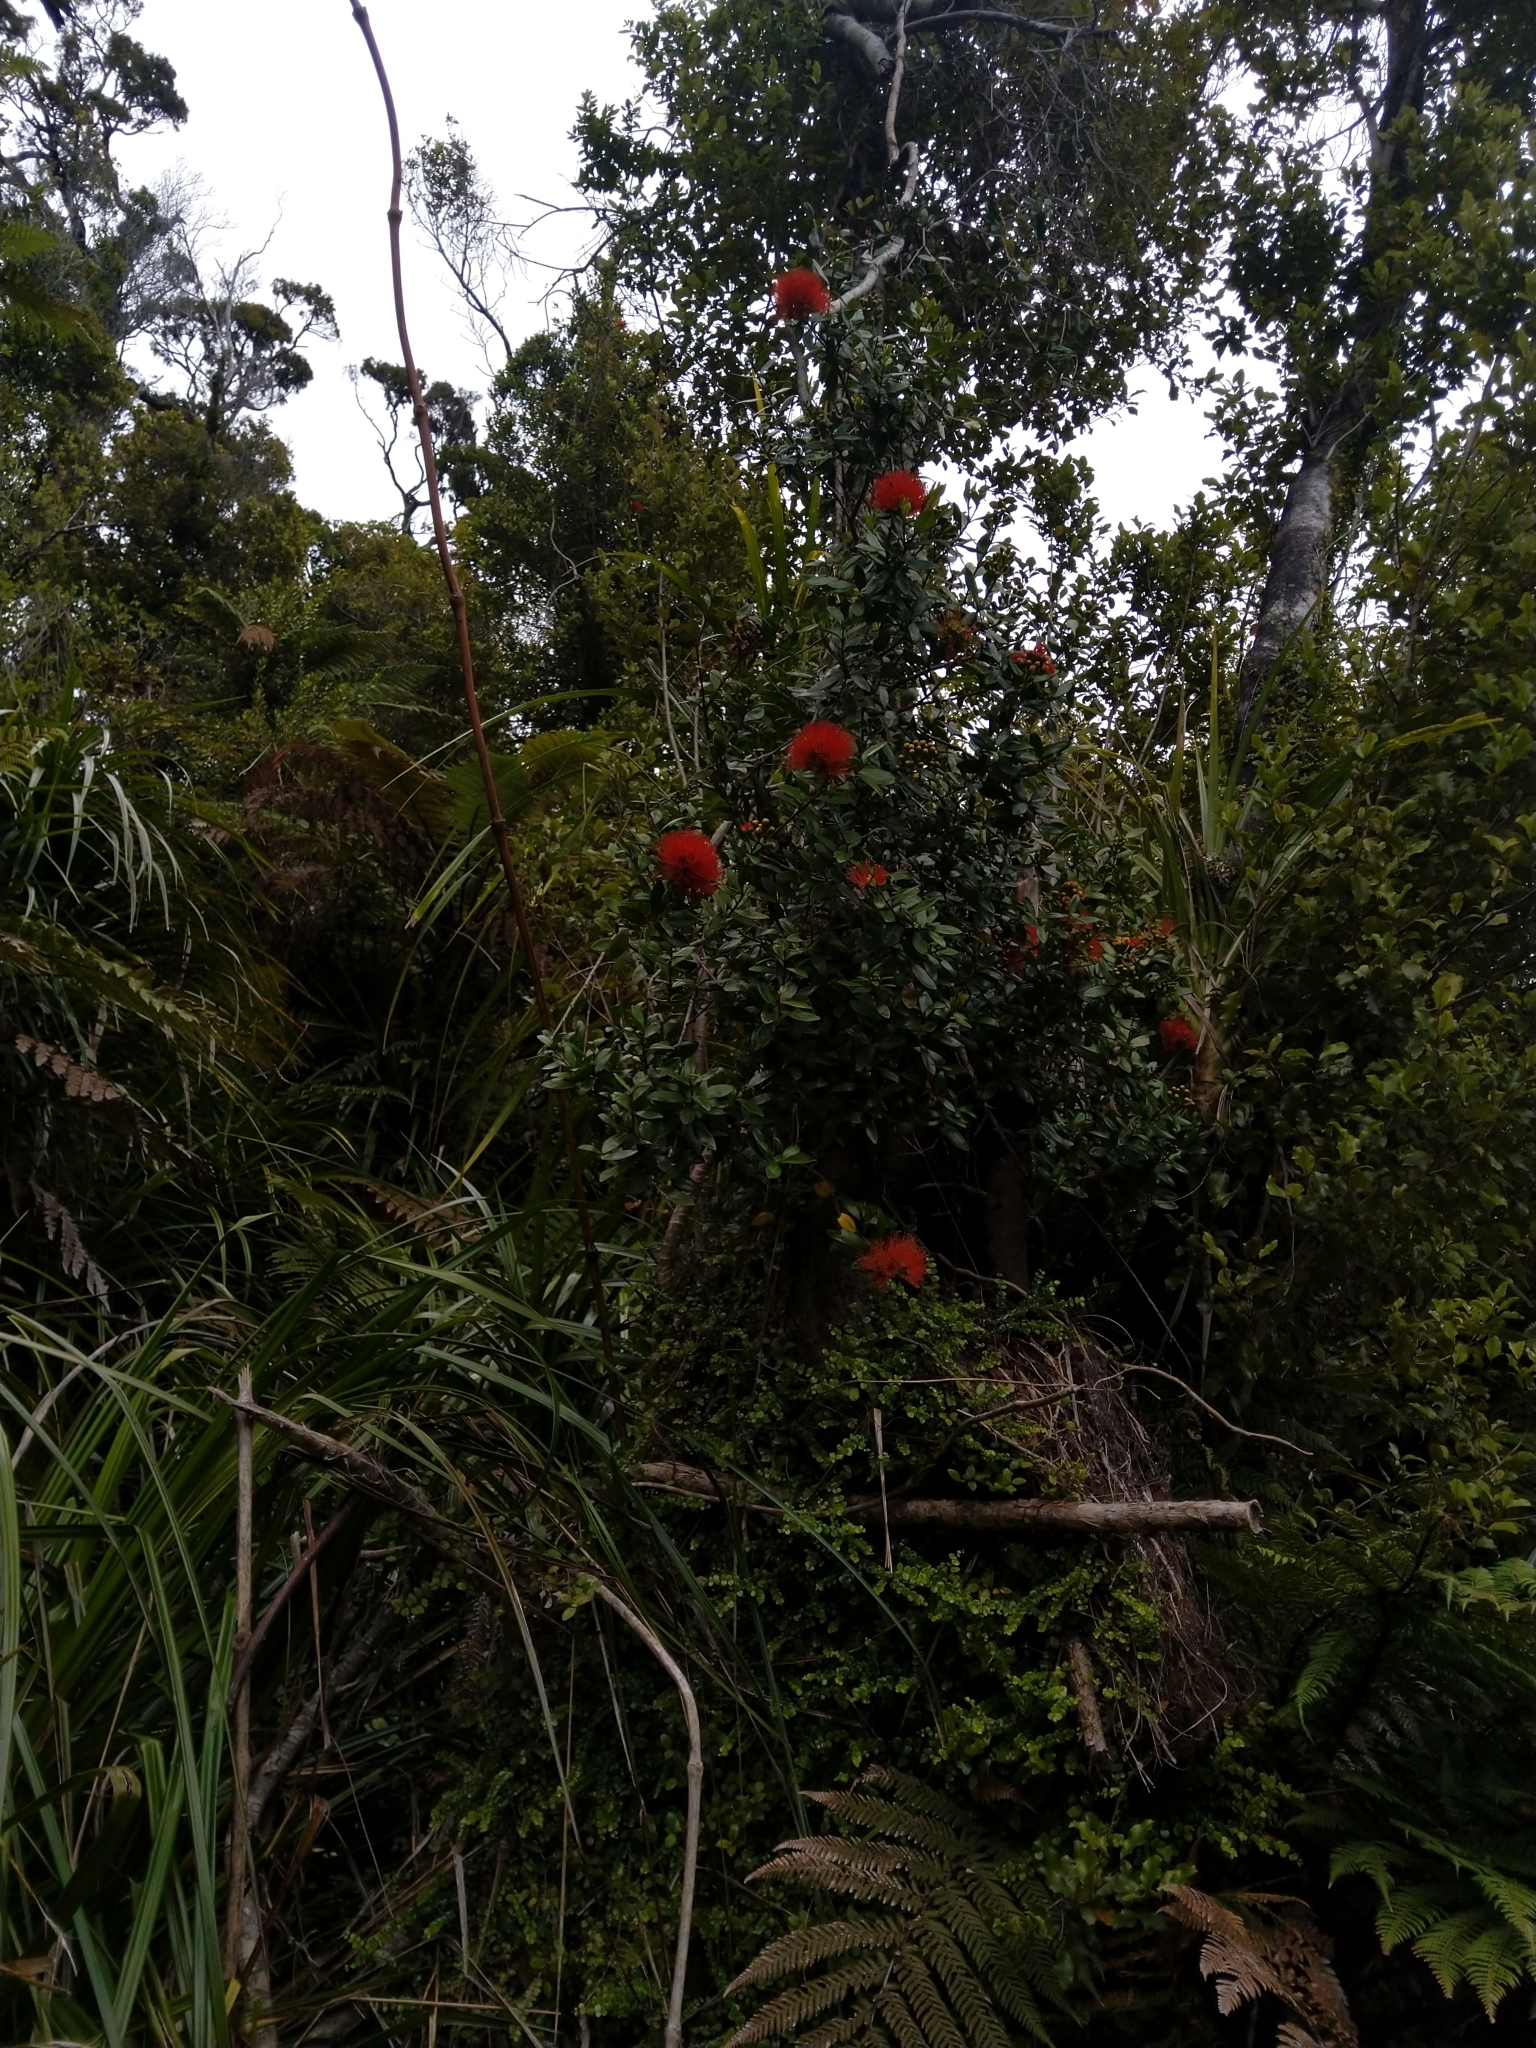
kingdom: Plantae
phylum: Tracheophyta
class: Magnoliopsida
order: Myrtales
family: Myrtaceae
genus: Metrosideros
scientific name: Metrosideros fulgens
